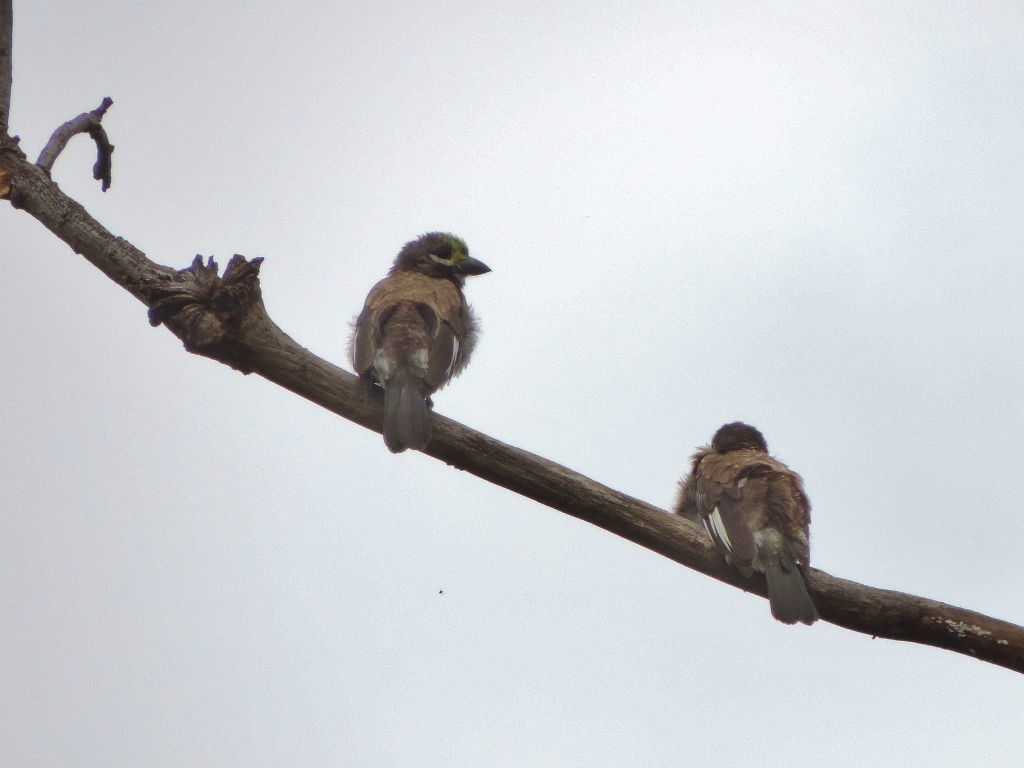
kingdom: Animalia
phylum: Chordata
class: Aves
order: Piciformes
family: Lybiidae
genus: Stactolaema
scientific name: Stactolaema whytii
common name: Whyte's barbet
